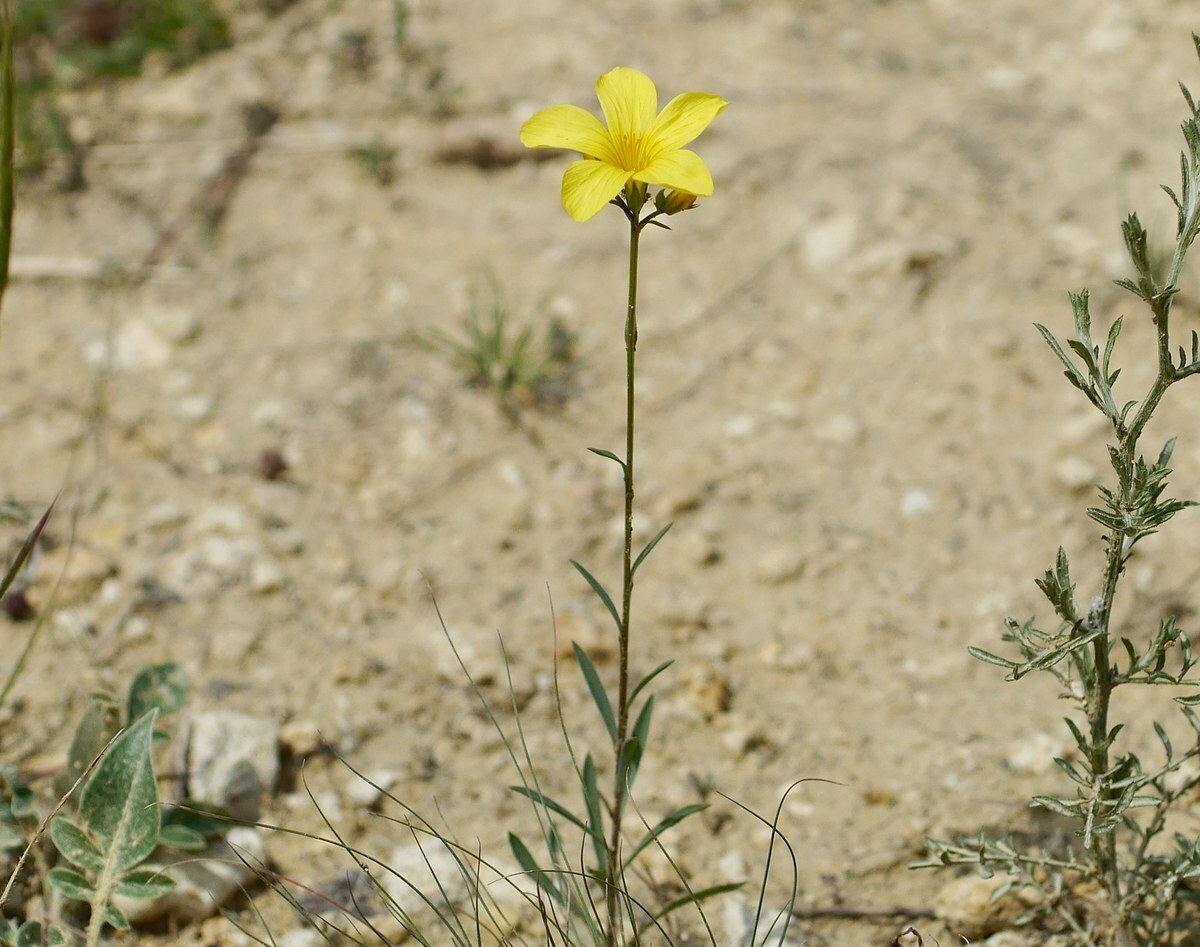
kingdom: Plantae
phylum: Tracheophyta
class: Magnoliopsida
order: Malpighiales
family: Linaceae
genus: Linum
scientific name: Linum tauricum
